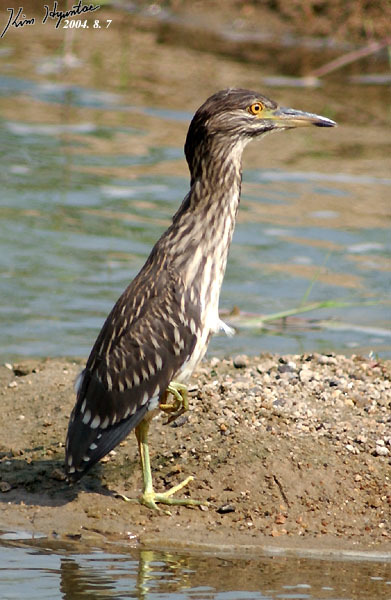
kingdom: Animalia
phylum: Chordata
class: Aves
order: Pelecaniformes
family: Ardeidae
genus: Nycticorax
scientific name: Nycticorax nycticorax
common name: Black-crowned night heron
